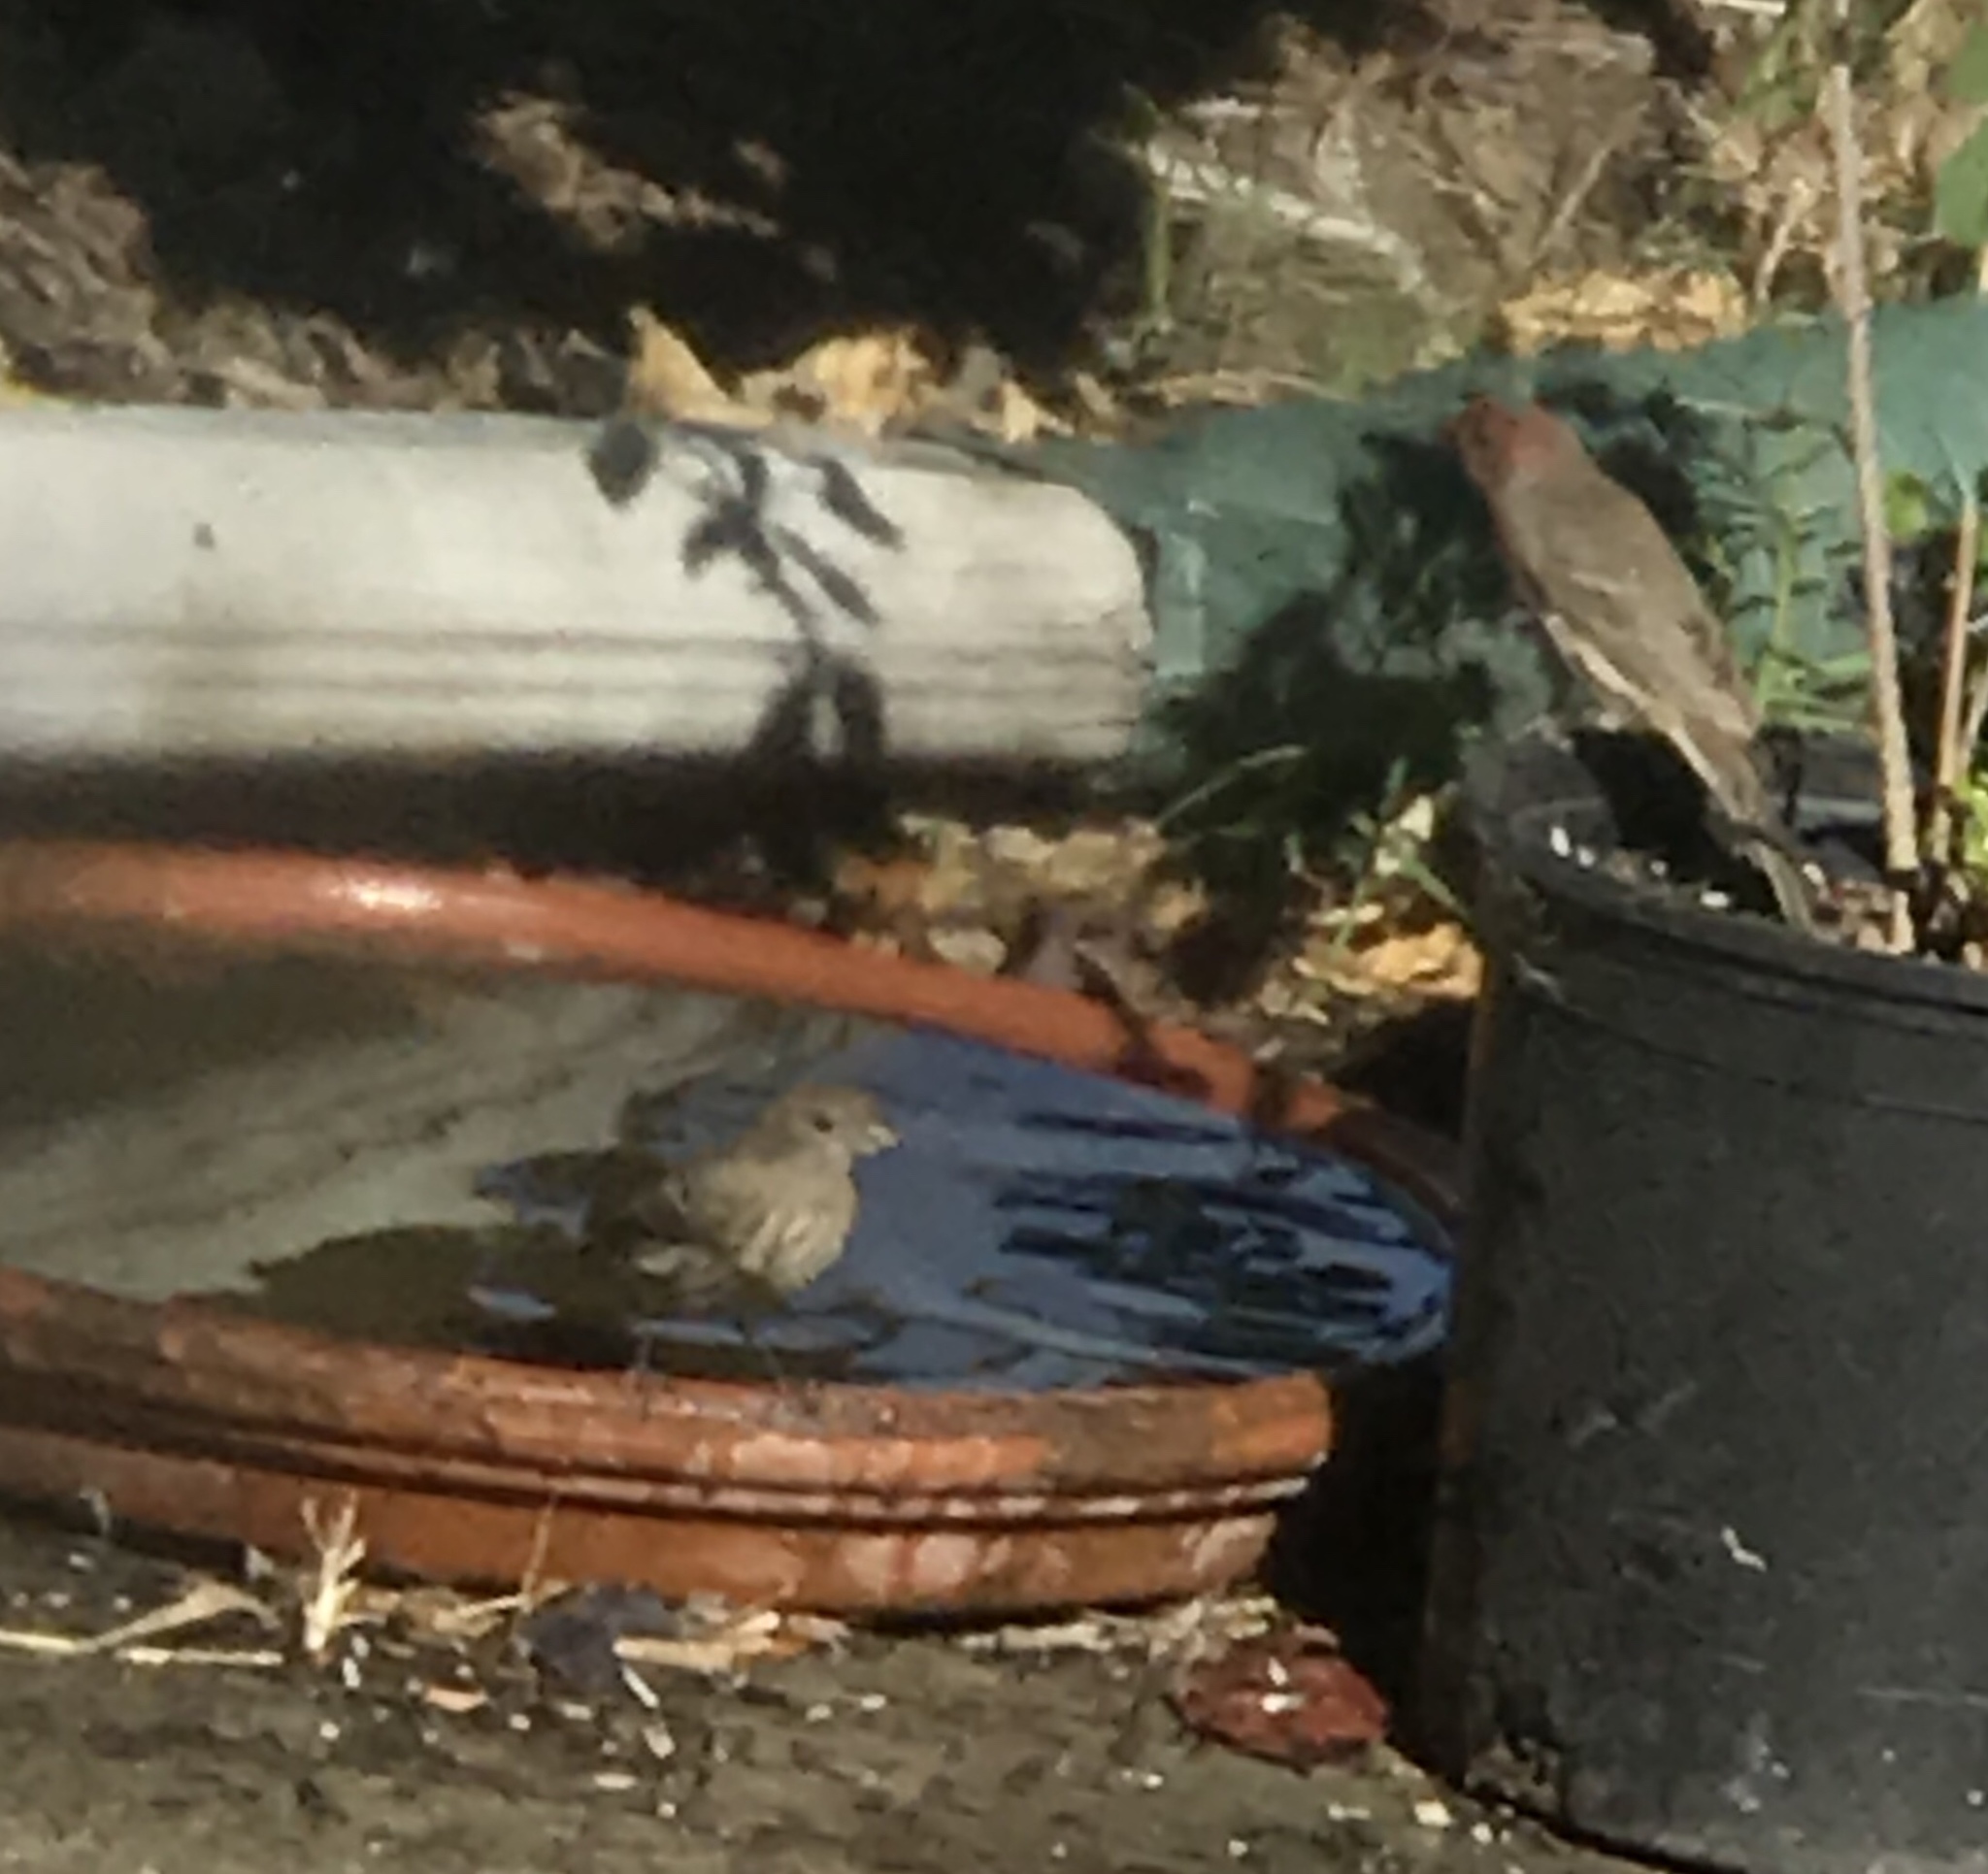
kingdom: Animalia
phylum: Chordata
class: Aves
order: Passeriformes
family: Fringillidae
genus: Haemorhous
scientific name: Haemorhous mexicanus
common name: House finch
